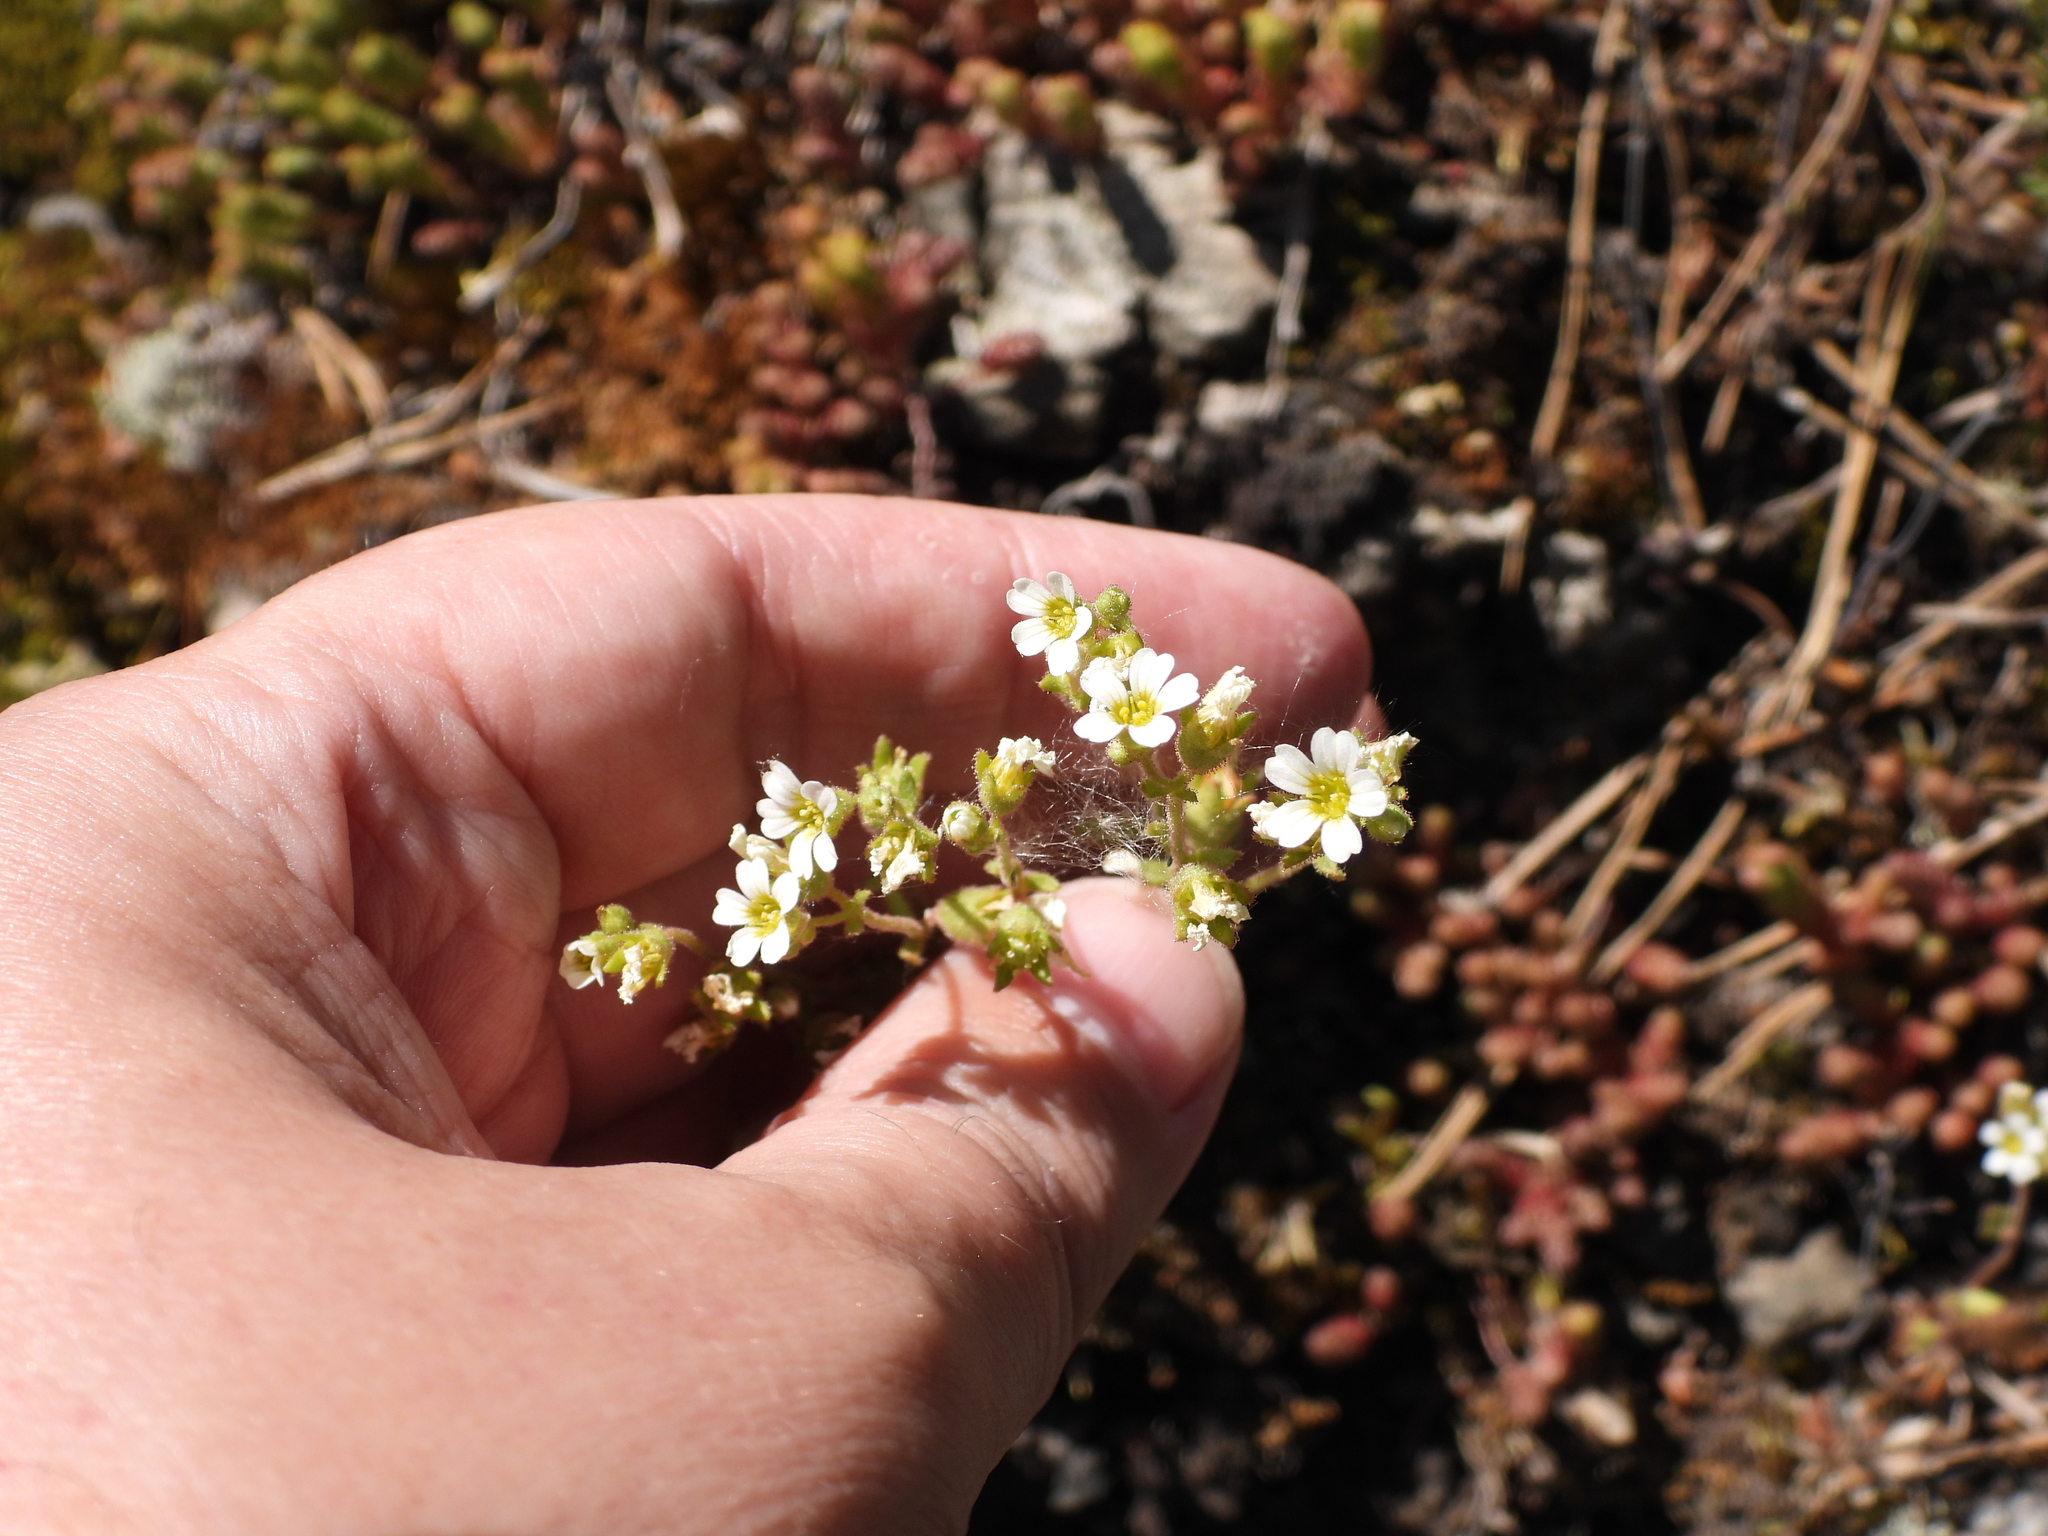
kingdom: Plantae
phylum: Tracheophyta
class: Magnoliopsida
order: Saxifragales
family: Saxifragaceae
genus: Saxifraga
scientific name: Saxifraga adscendens
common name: Ascending saxifrage
